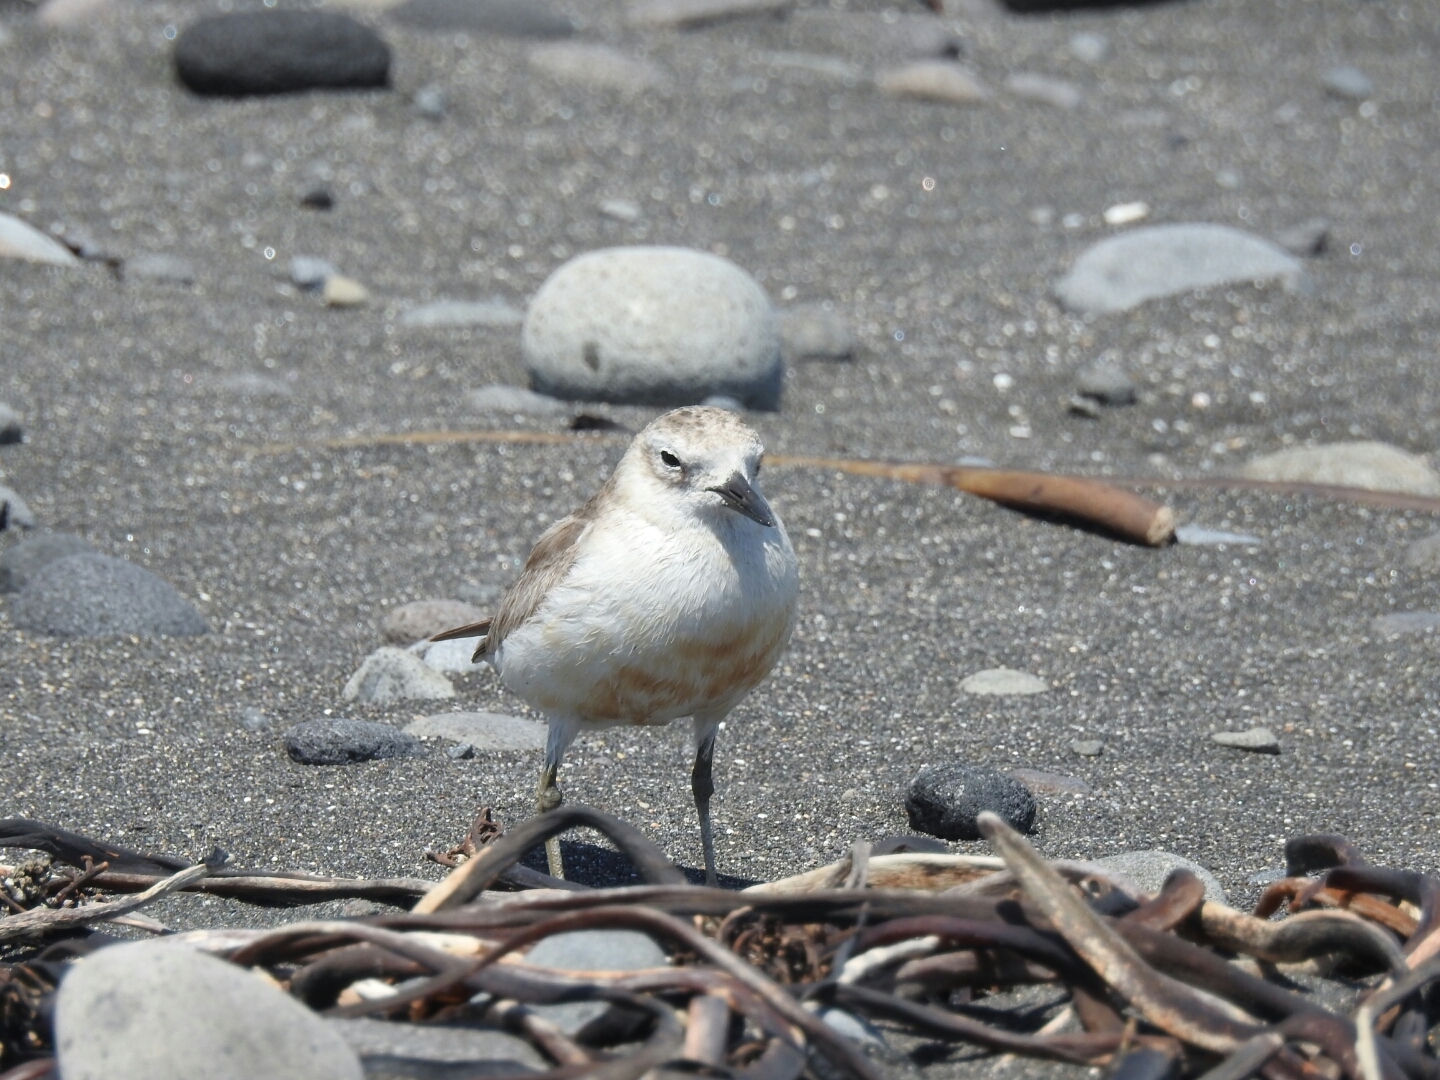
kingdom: Animalia
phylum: Chordata
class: Aves
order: Charadriiformes
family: Charadriidae
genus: Anarhynchus
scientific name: Anarhynchus
